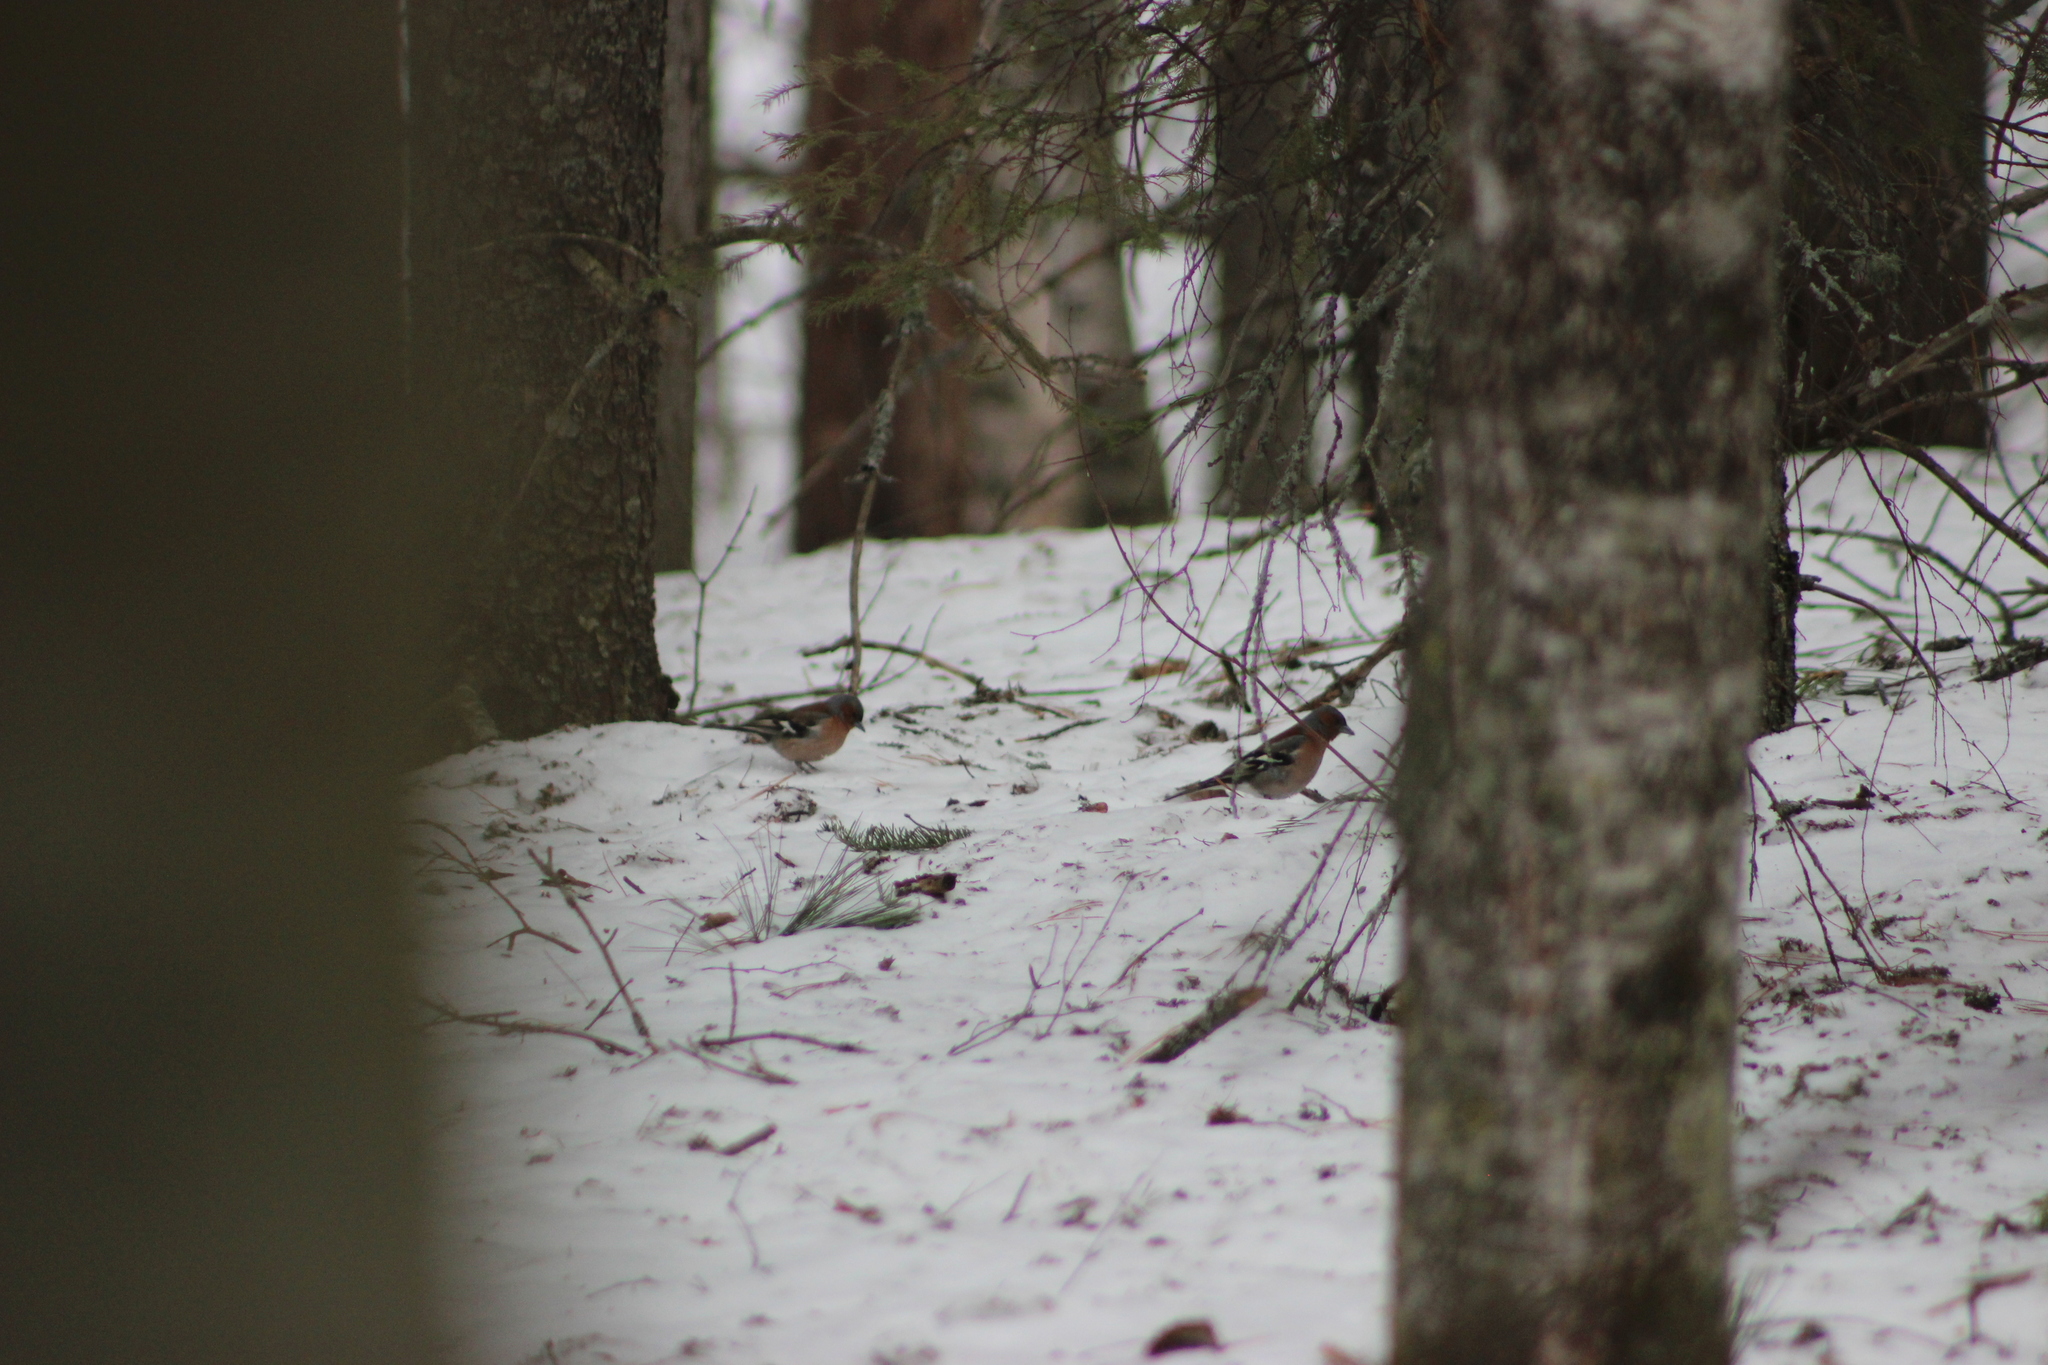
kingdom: Animalia
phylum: Chordata
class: Aves
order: Passeriformes
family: Fringillidae
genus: Fringilla
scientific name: Fringilla coelebs
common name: Common chaffinch
